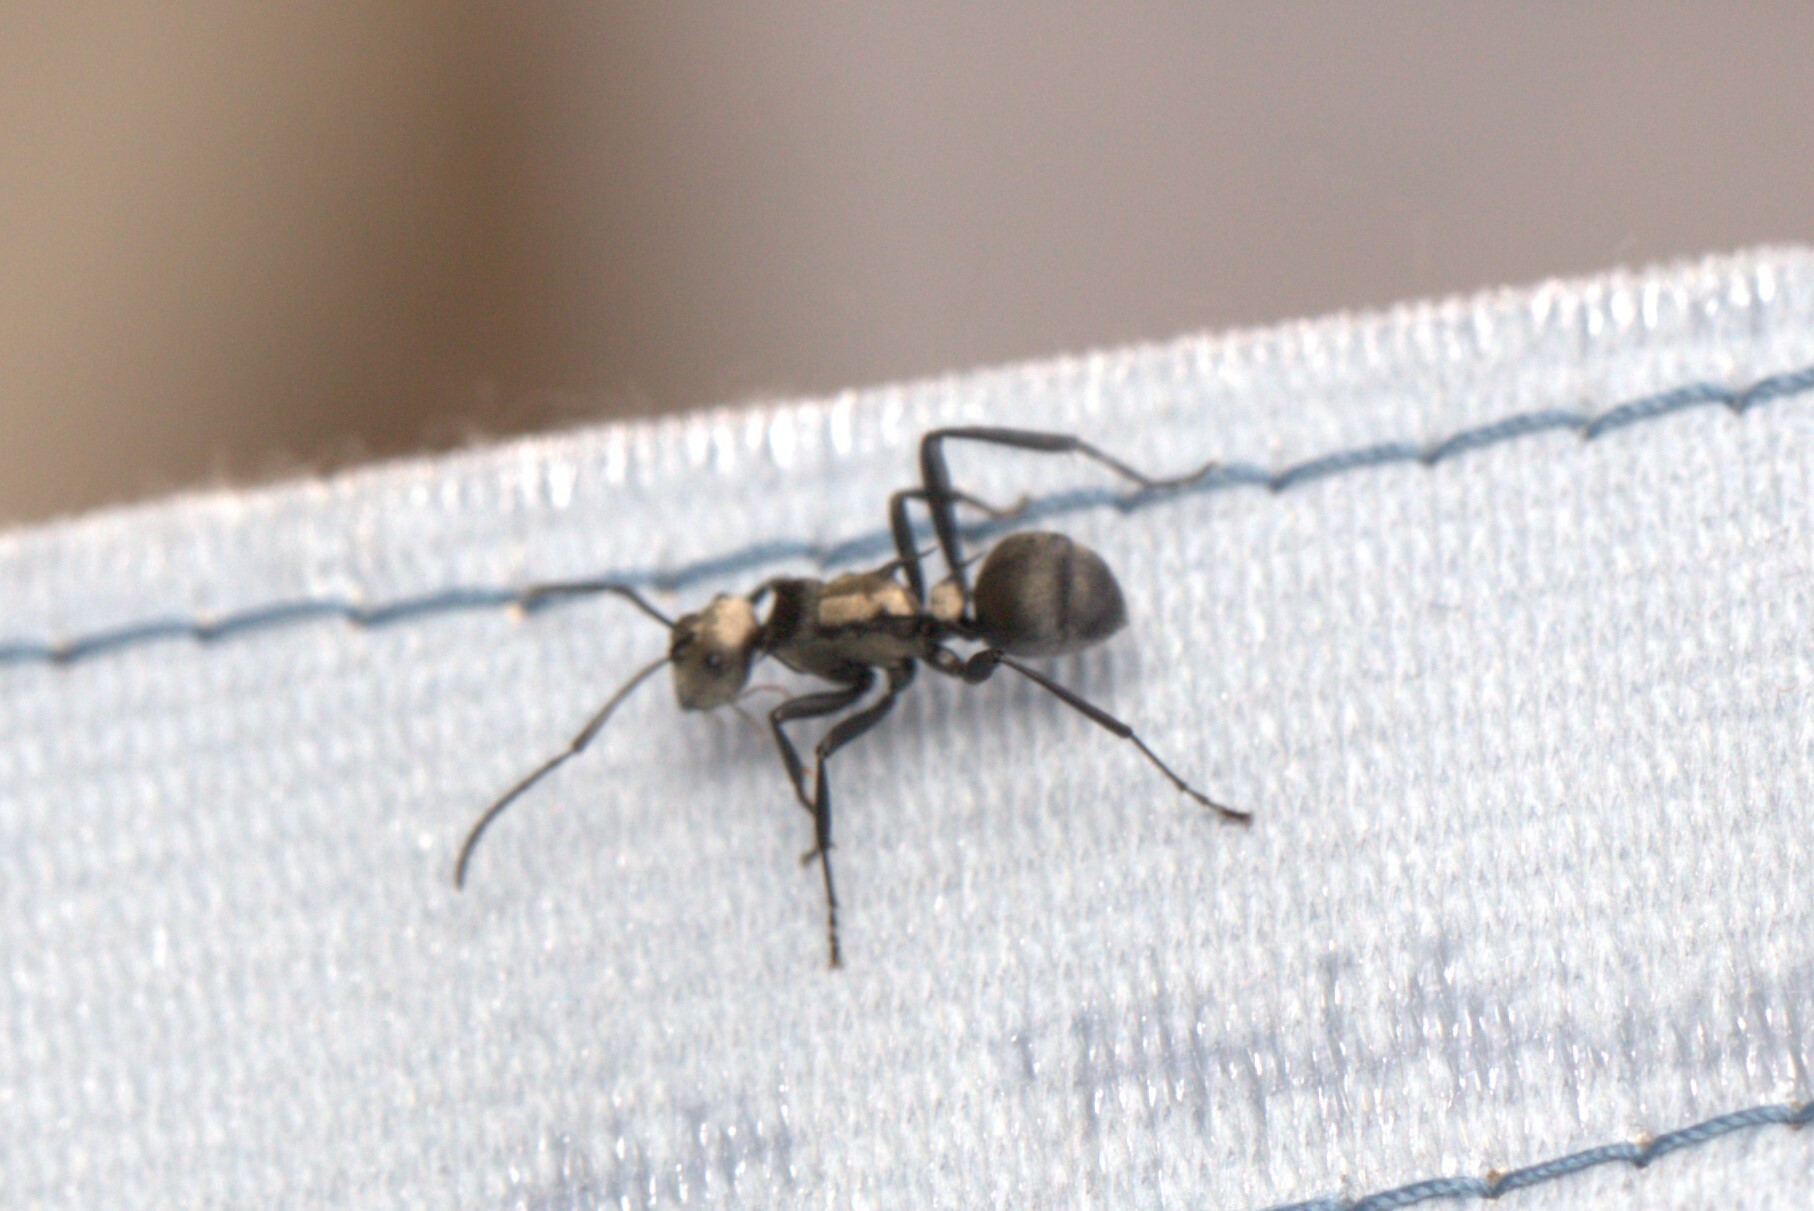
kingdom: Animalia
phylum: Arthropoda
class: Insecta
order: Hymenoptera
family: Formicidae
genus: Polyrhachis
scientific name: Polyrhachis daemeli
